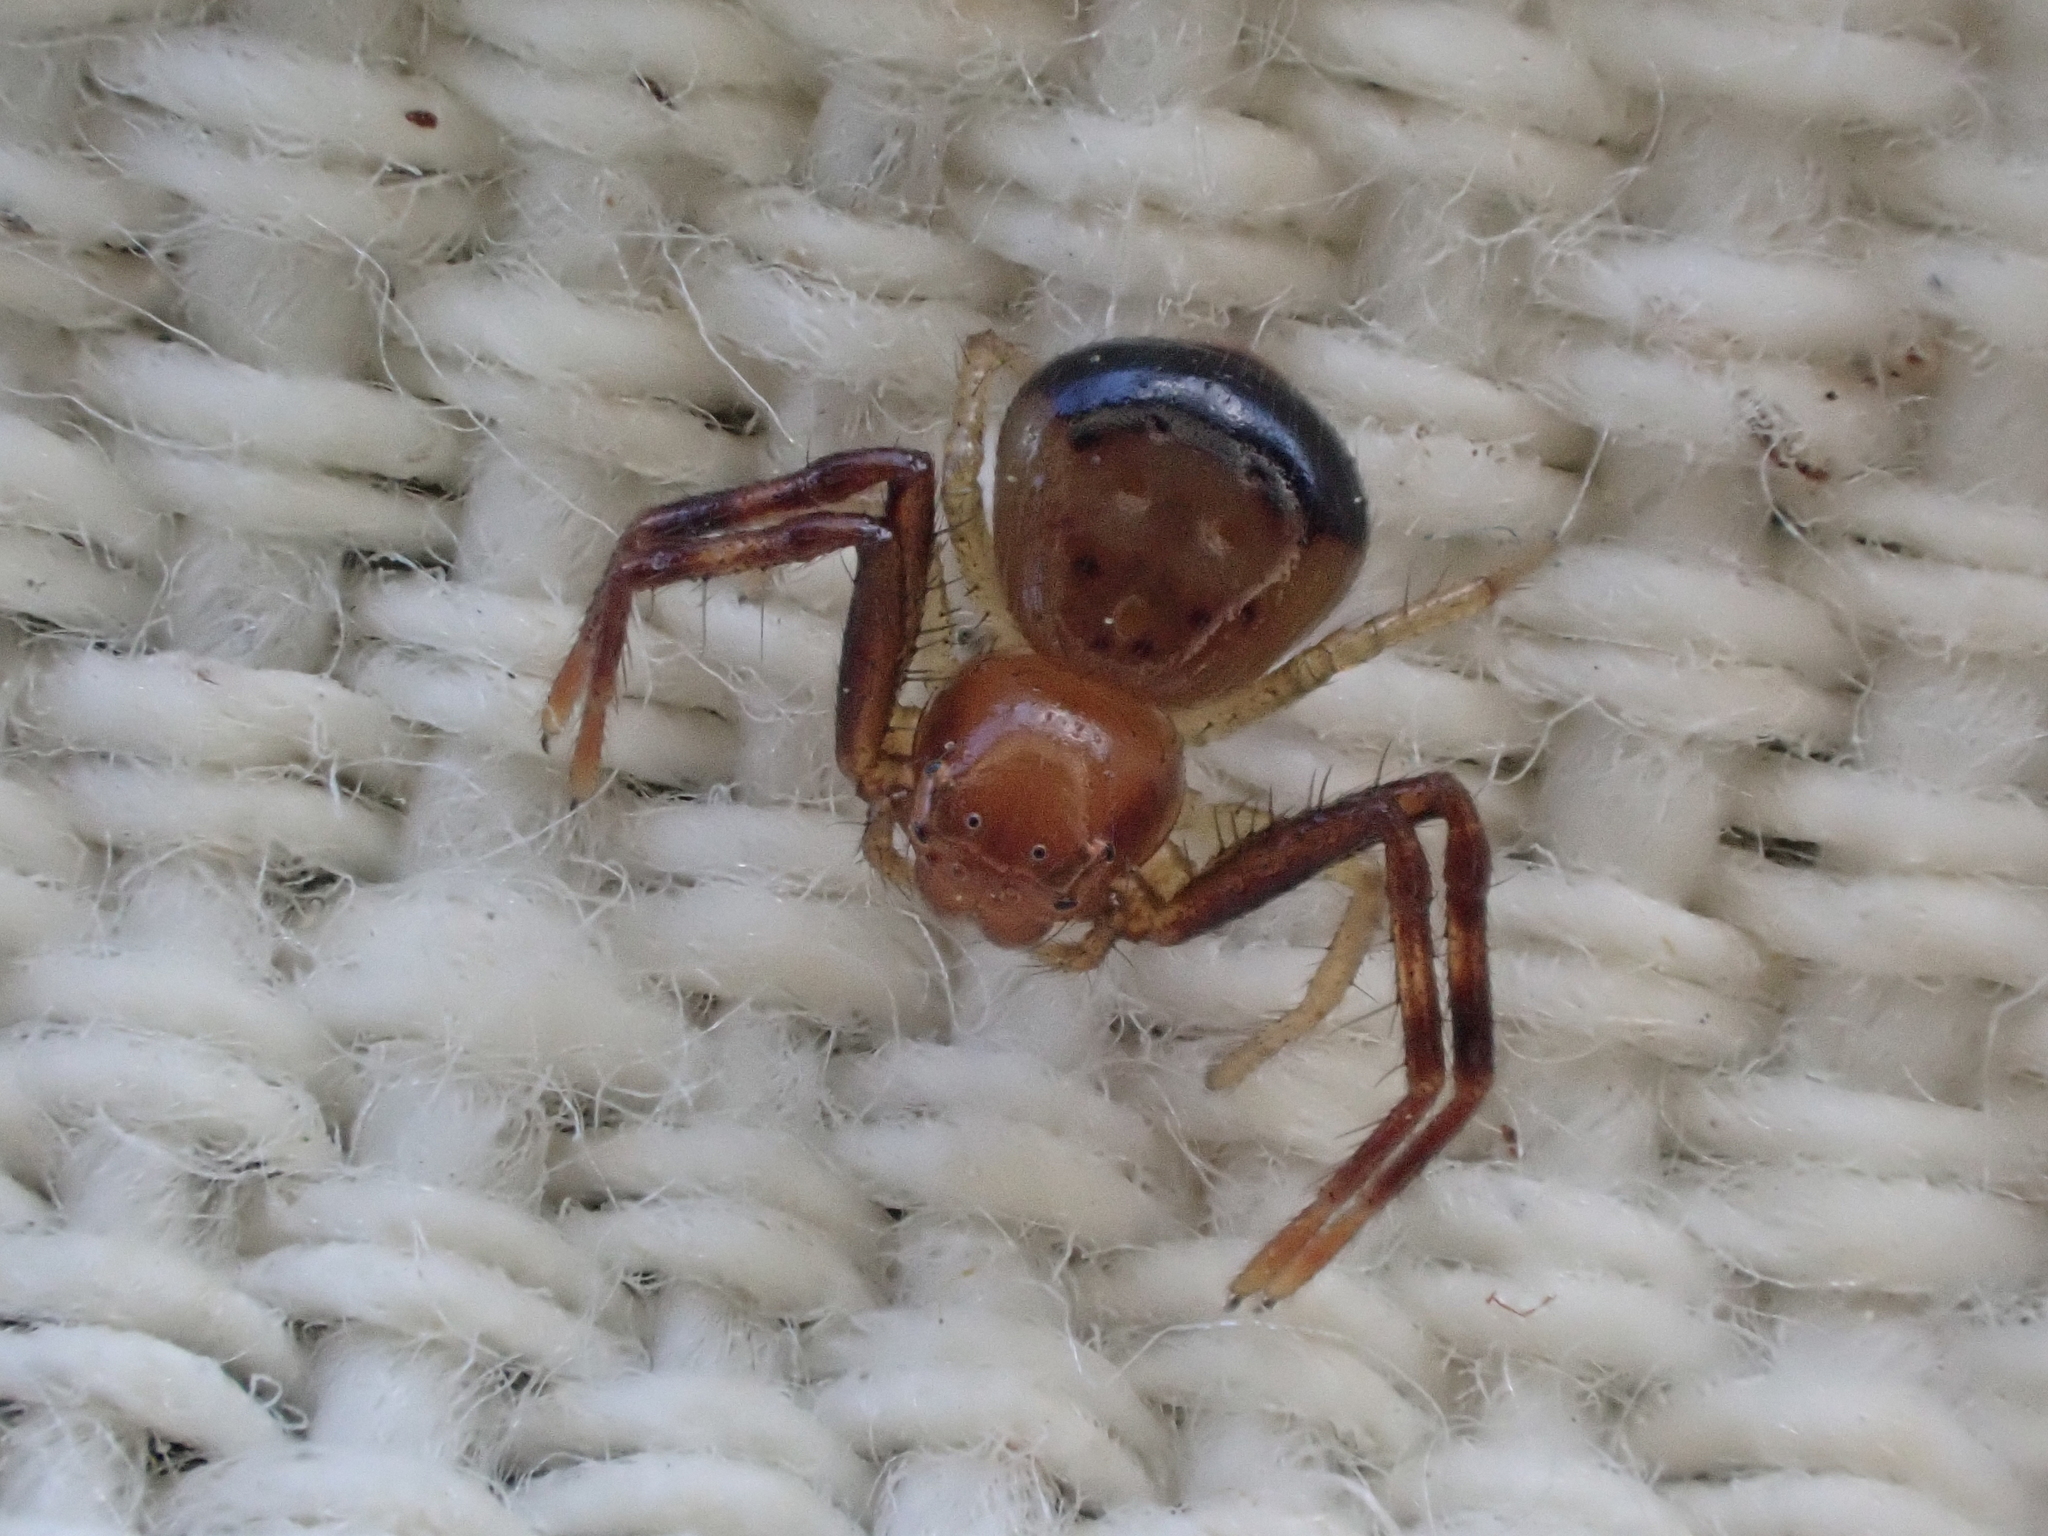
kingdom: Animalia
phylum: Arthropoda
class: Arachnida
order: Araneae
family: Thomisidae
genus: Synema
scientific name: Synema parvulum
